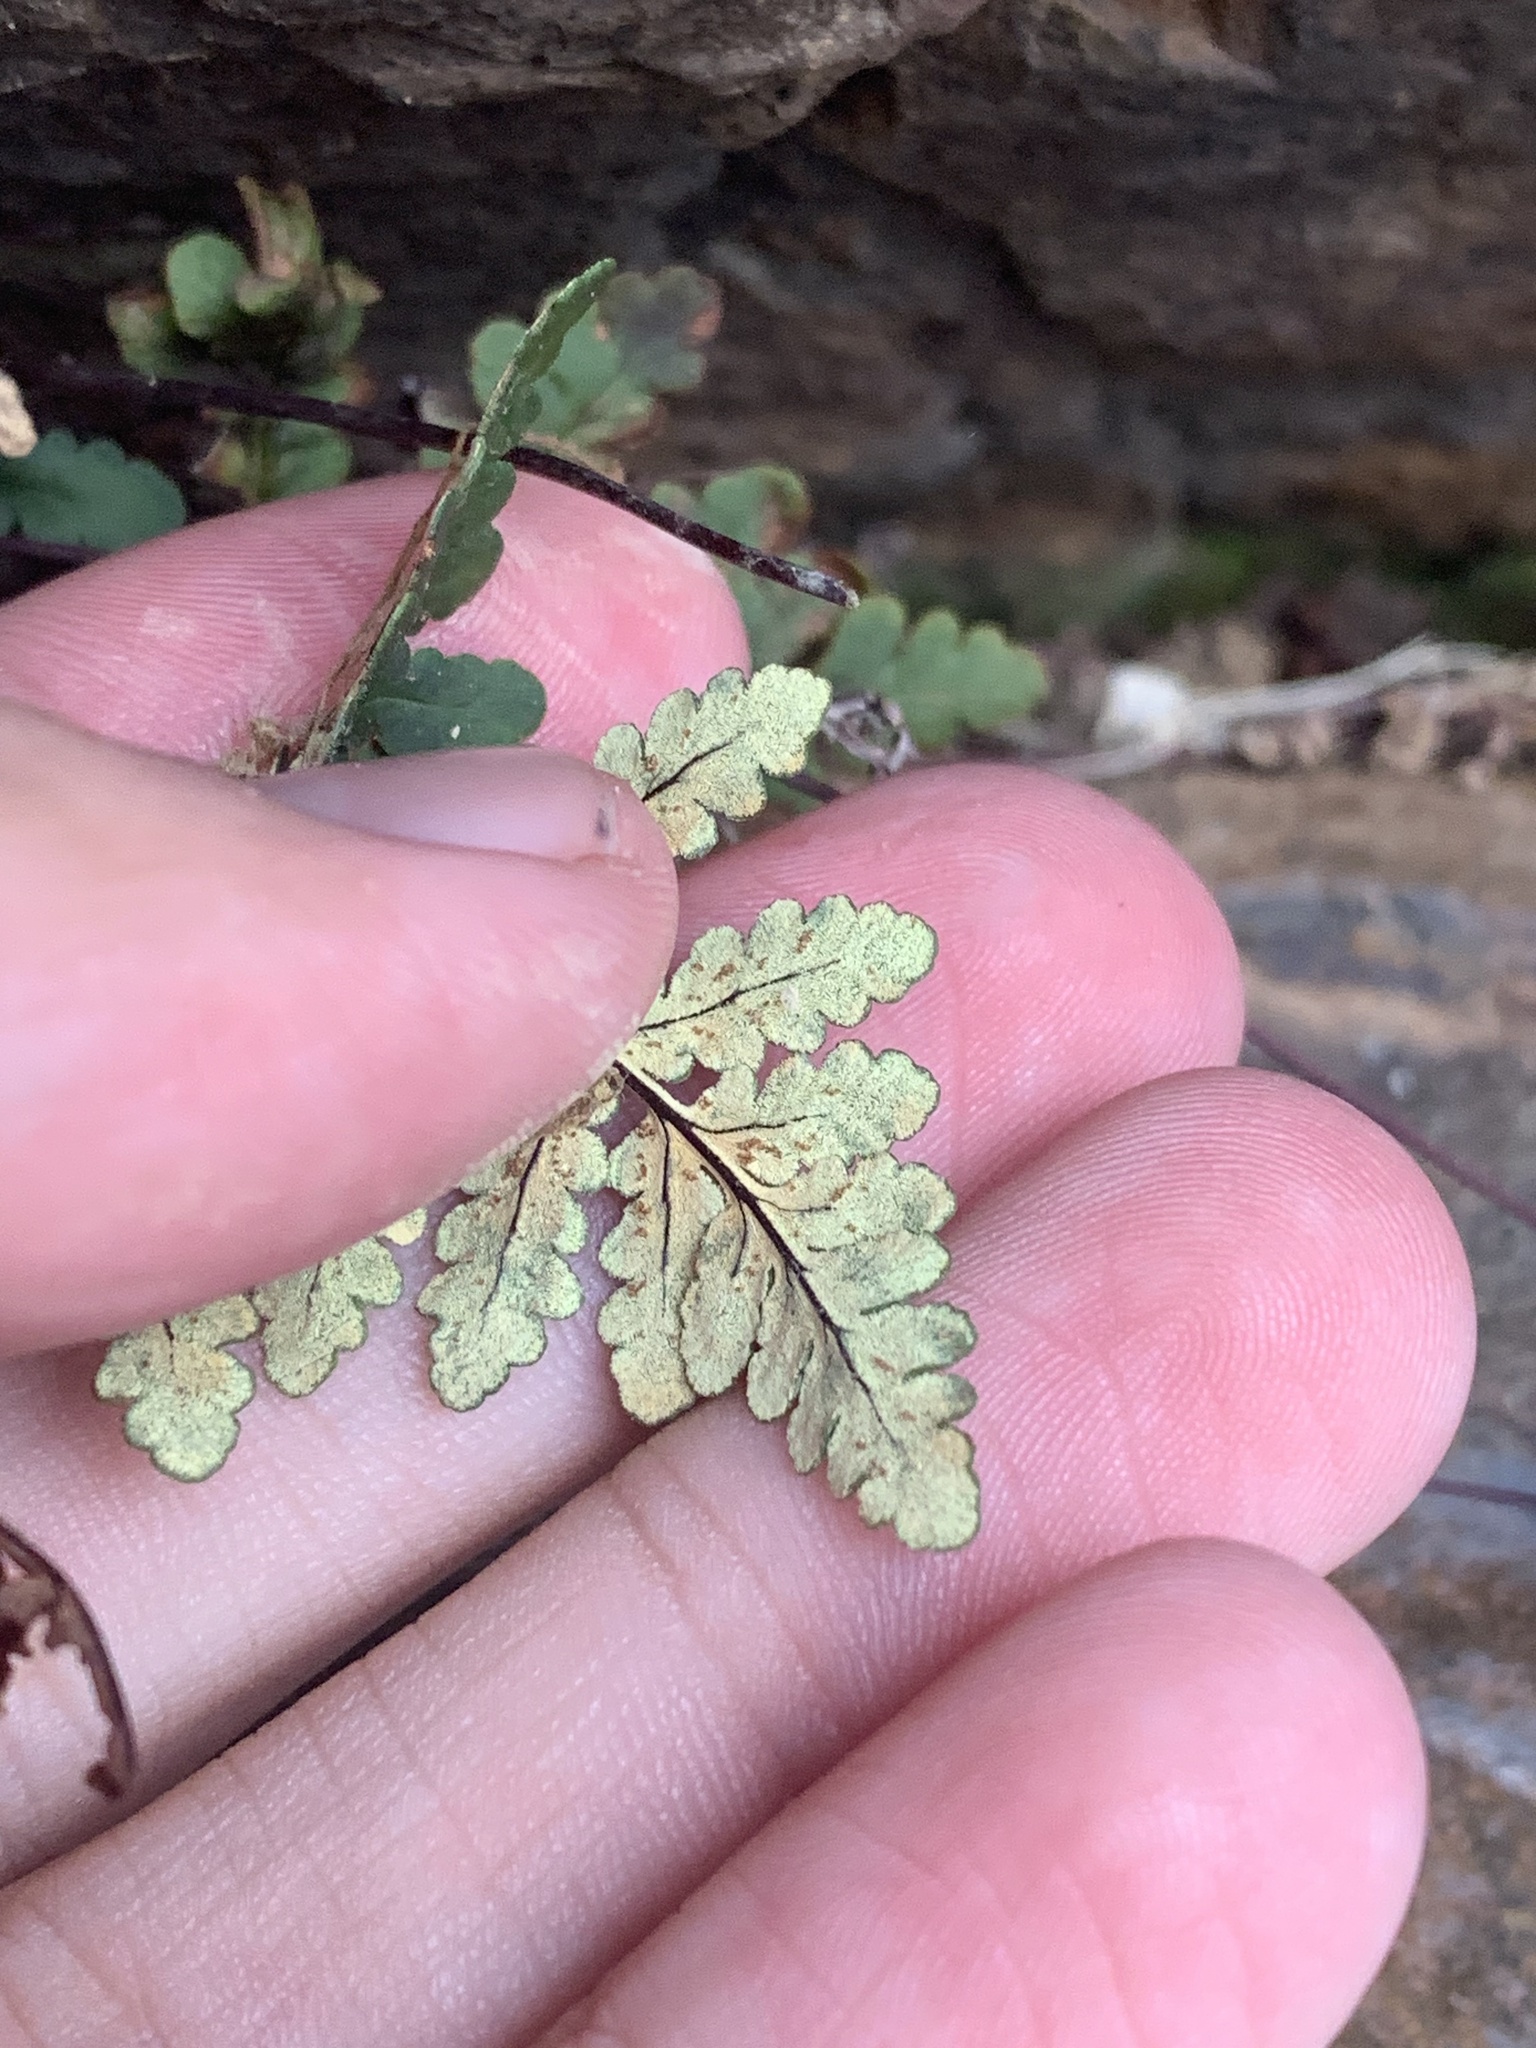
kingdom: Plantae
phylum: Tracheophyta
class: Polypodiopsida
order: Polypodiales
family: Pteridaceae
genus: Pentagramma
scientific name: Pentagramma triangularis
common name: Gold fern
